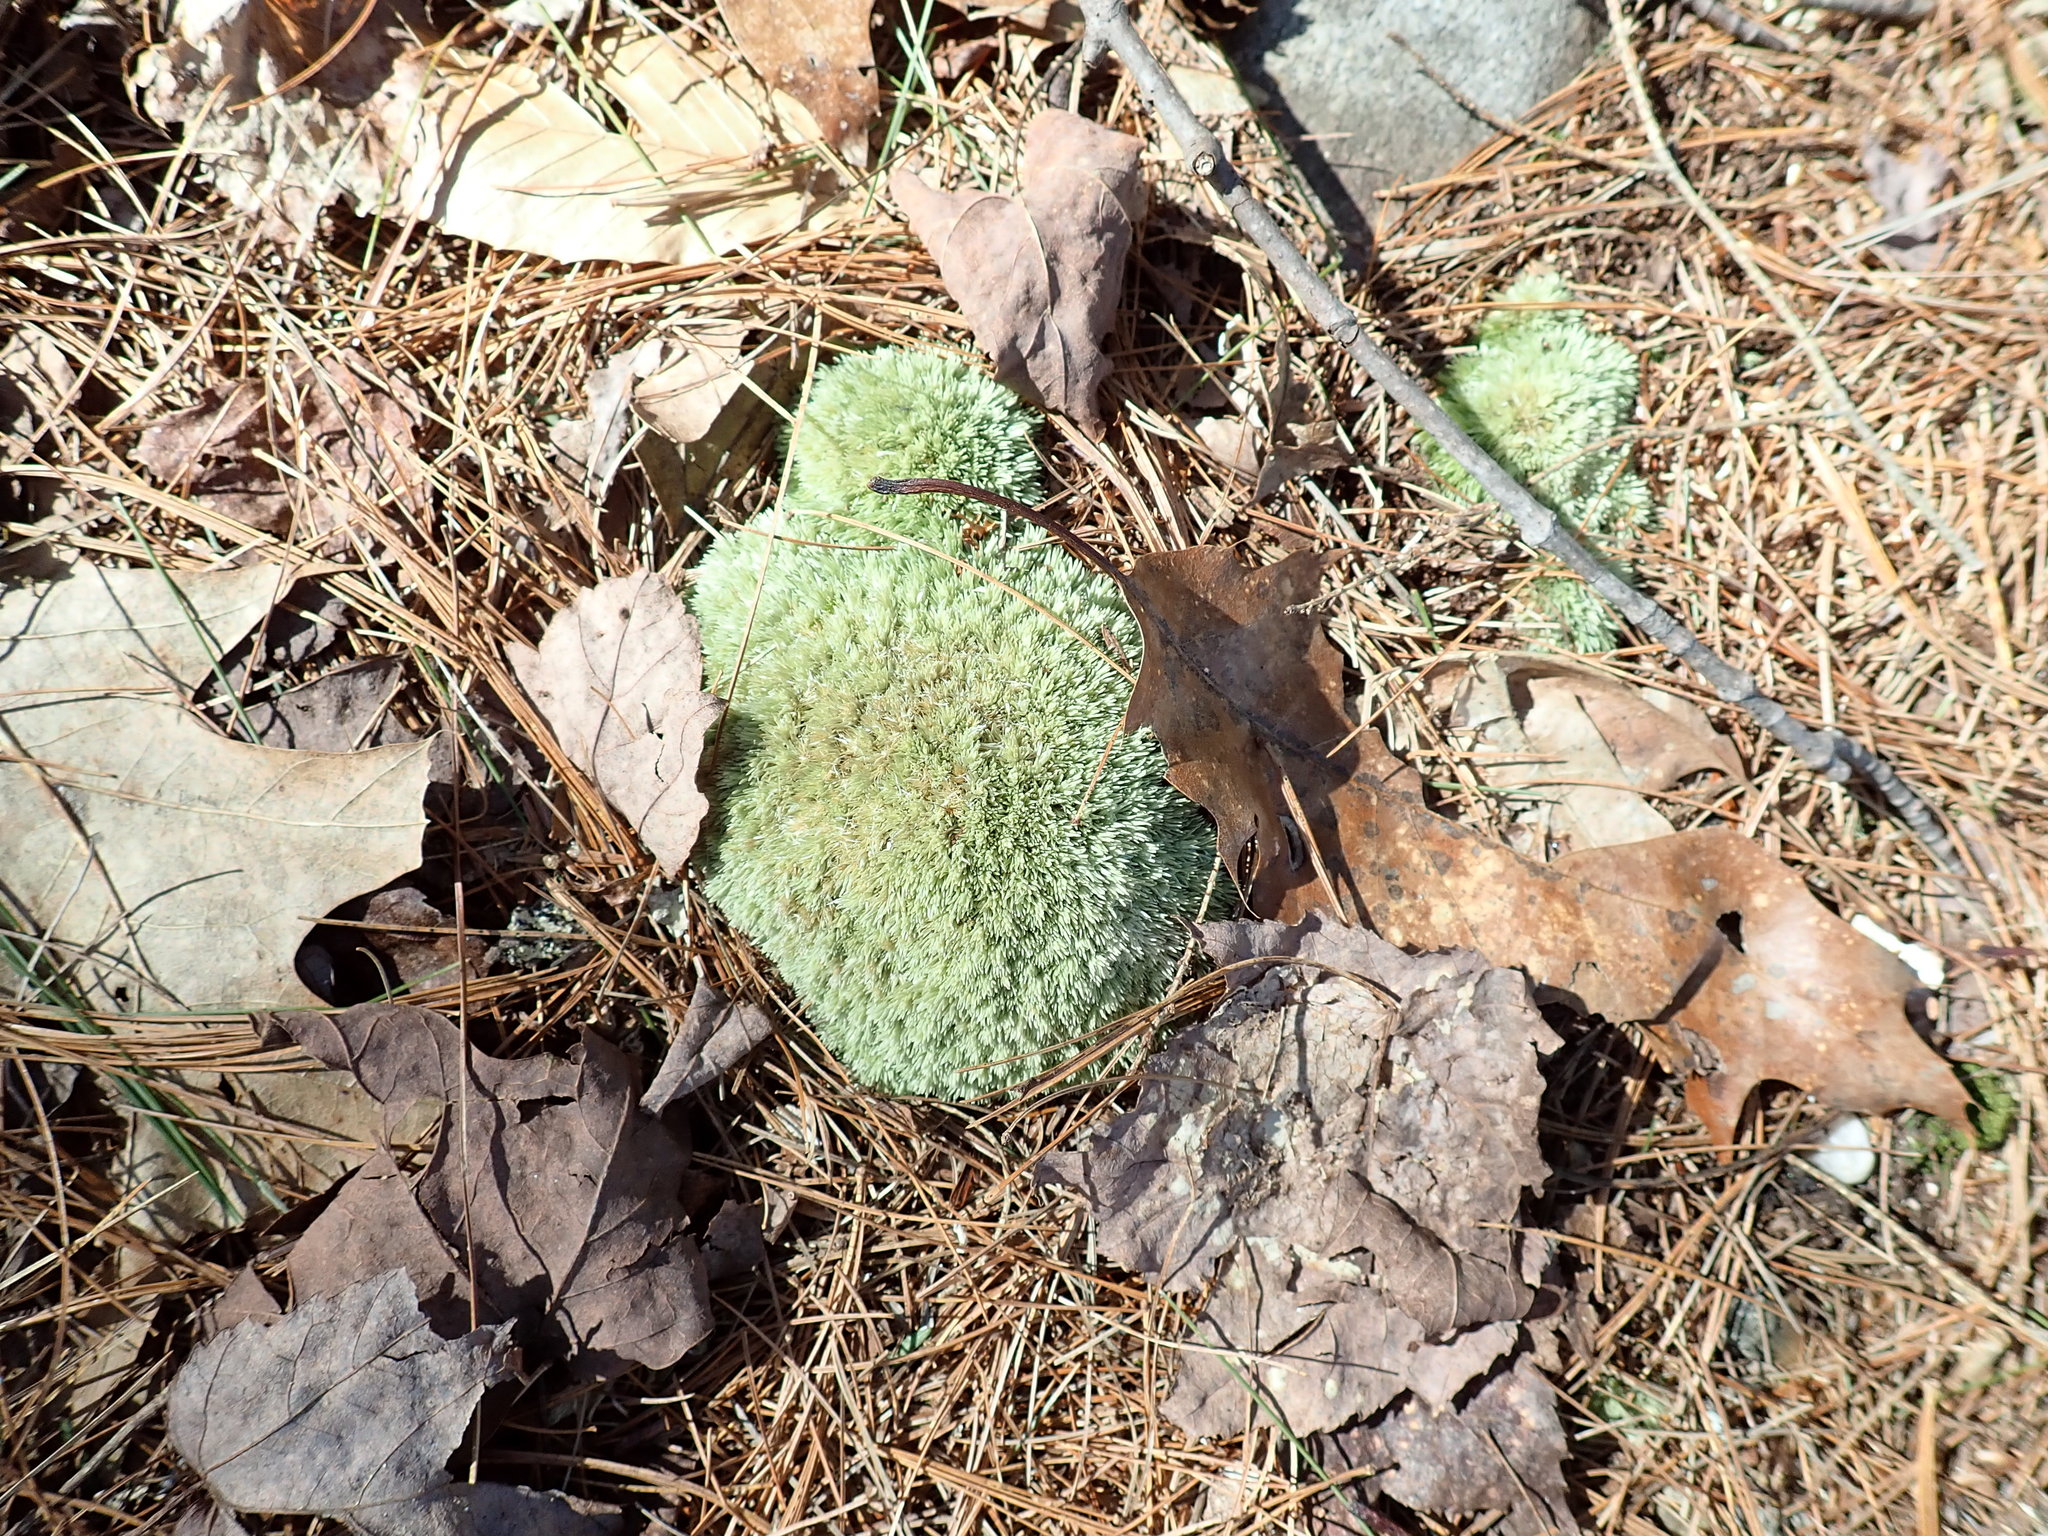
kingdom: Plantae
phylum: Bryophyta
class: Bryopsida
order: Dicranales
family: Leucobryaceae
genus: Leucobryum
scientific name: Leucobryum glaucum
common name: Large white-moss
